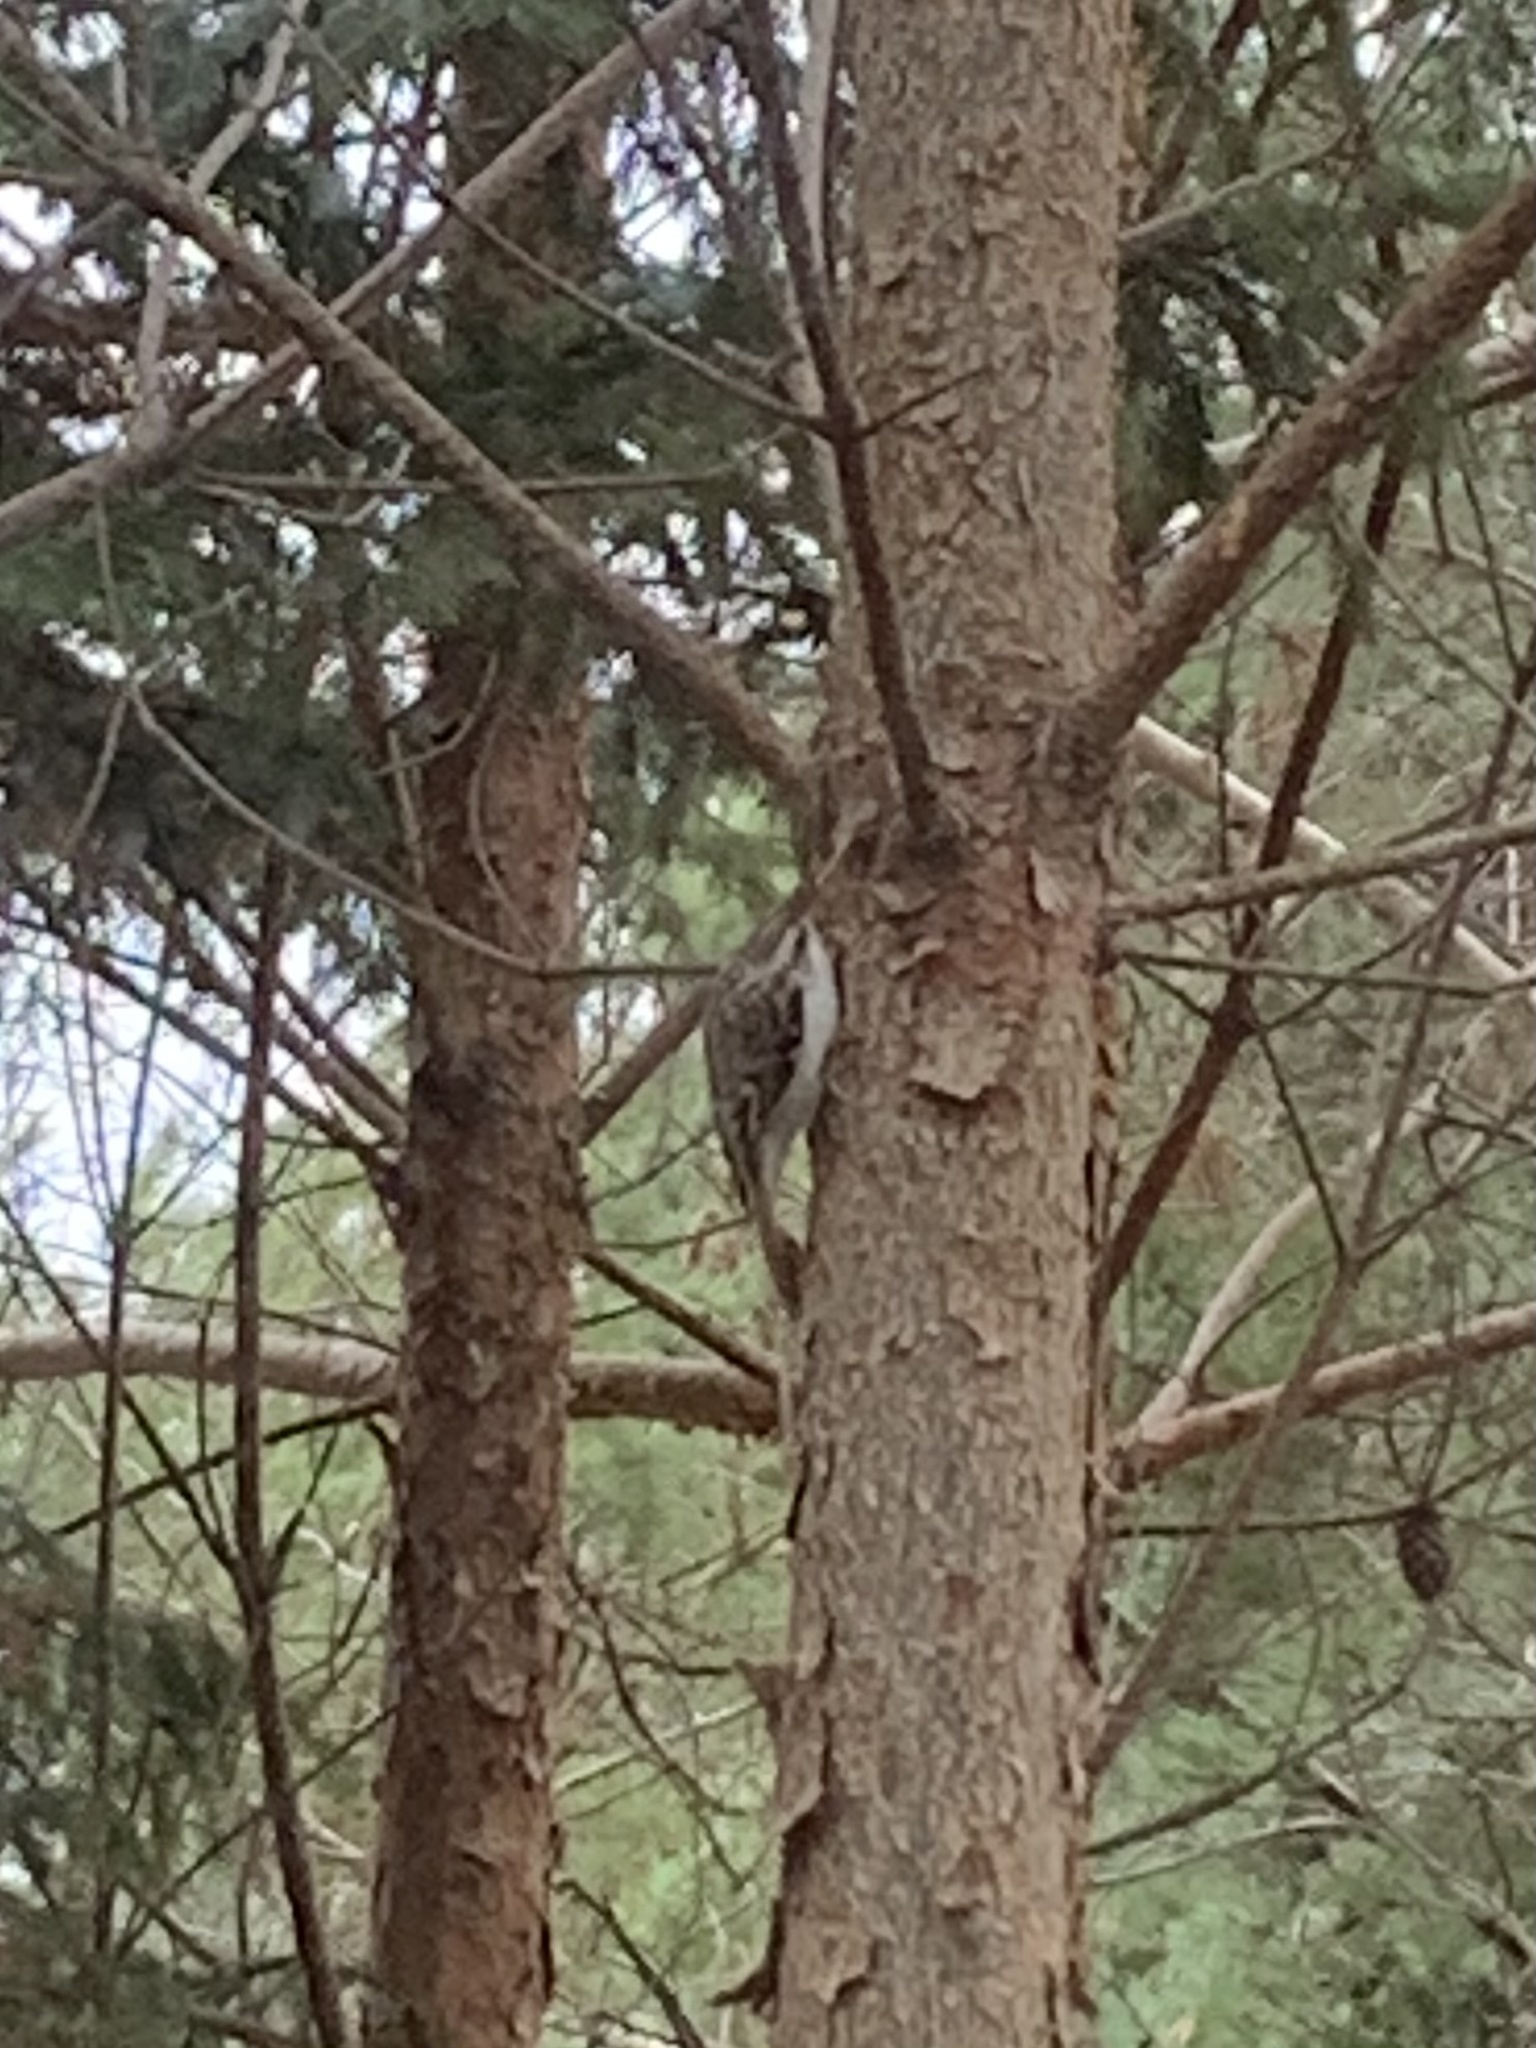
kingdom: Animalia
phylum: Chordata
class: Aves
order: Passeriformes
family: Certhiidae
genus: Certhia
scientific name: Certhia familiaris
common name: Eurasian treecreeper
